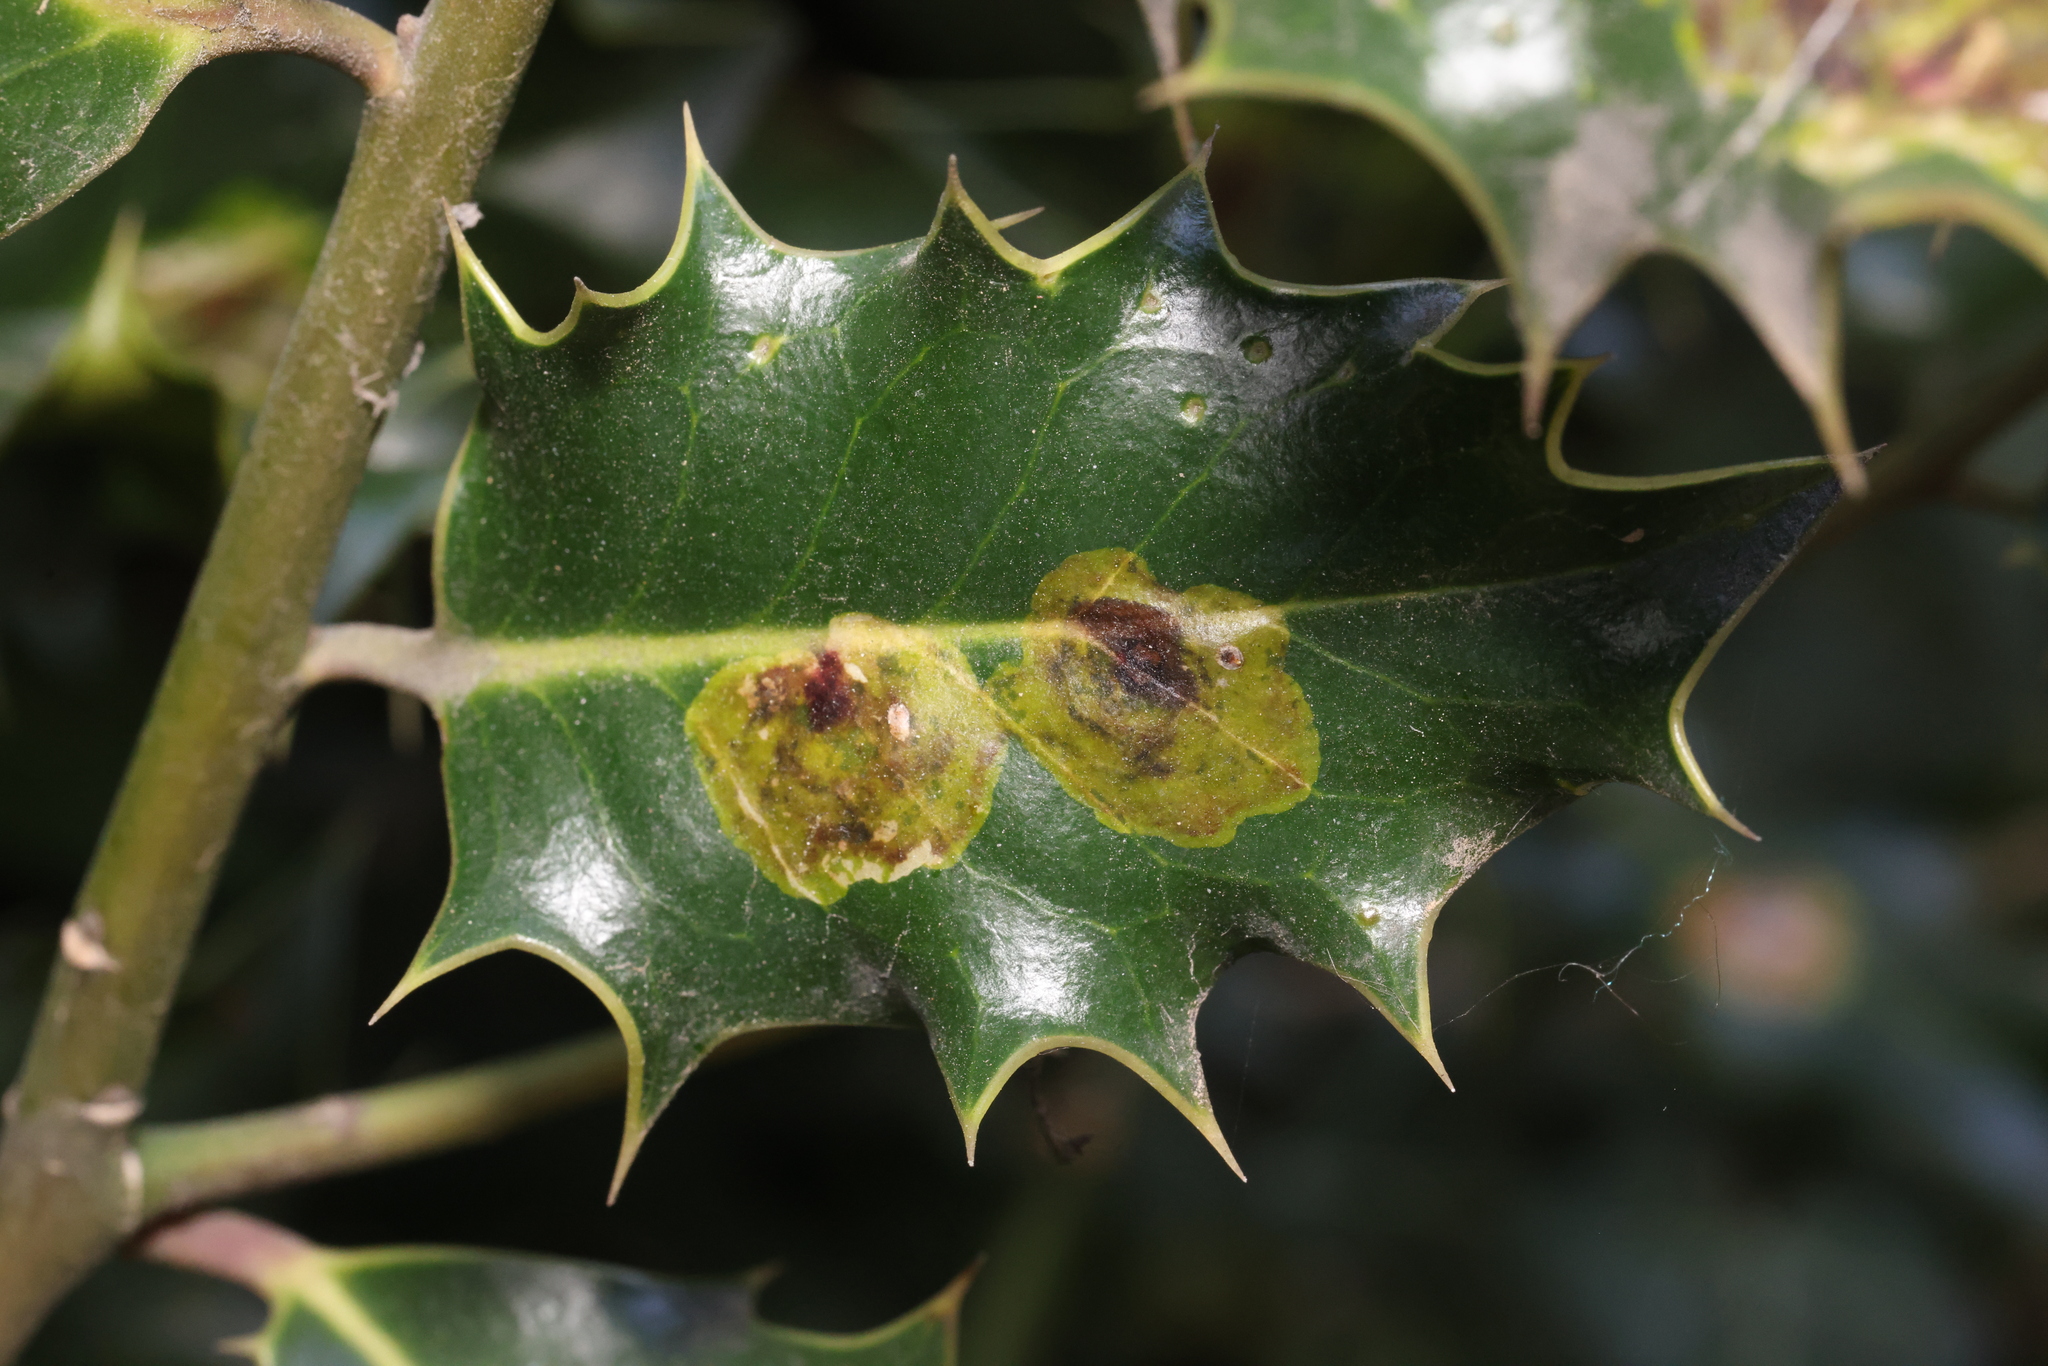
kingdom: Animalia
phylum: Arthropoda
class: Insecta
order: Diptera
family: Agromyzidae
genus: Phytomyza
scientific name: Phytomyza ilicis
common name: Holly leafminer
